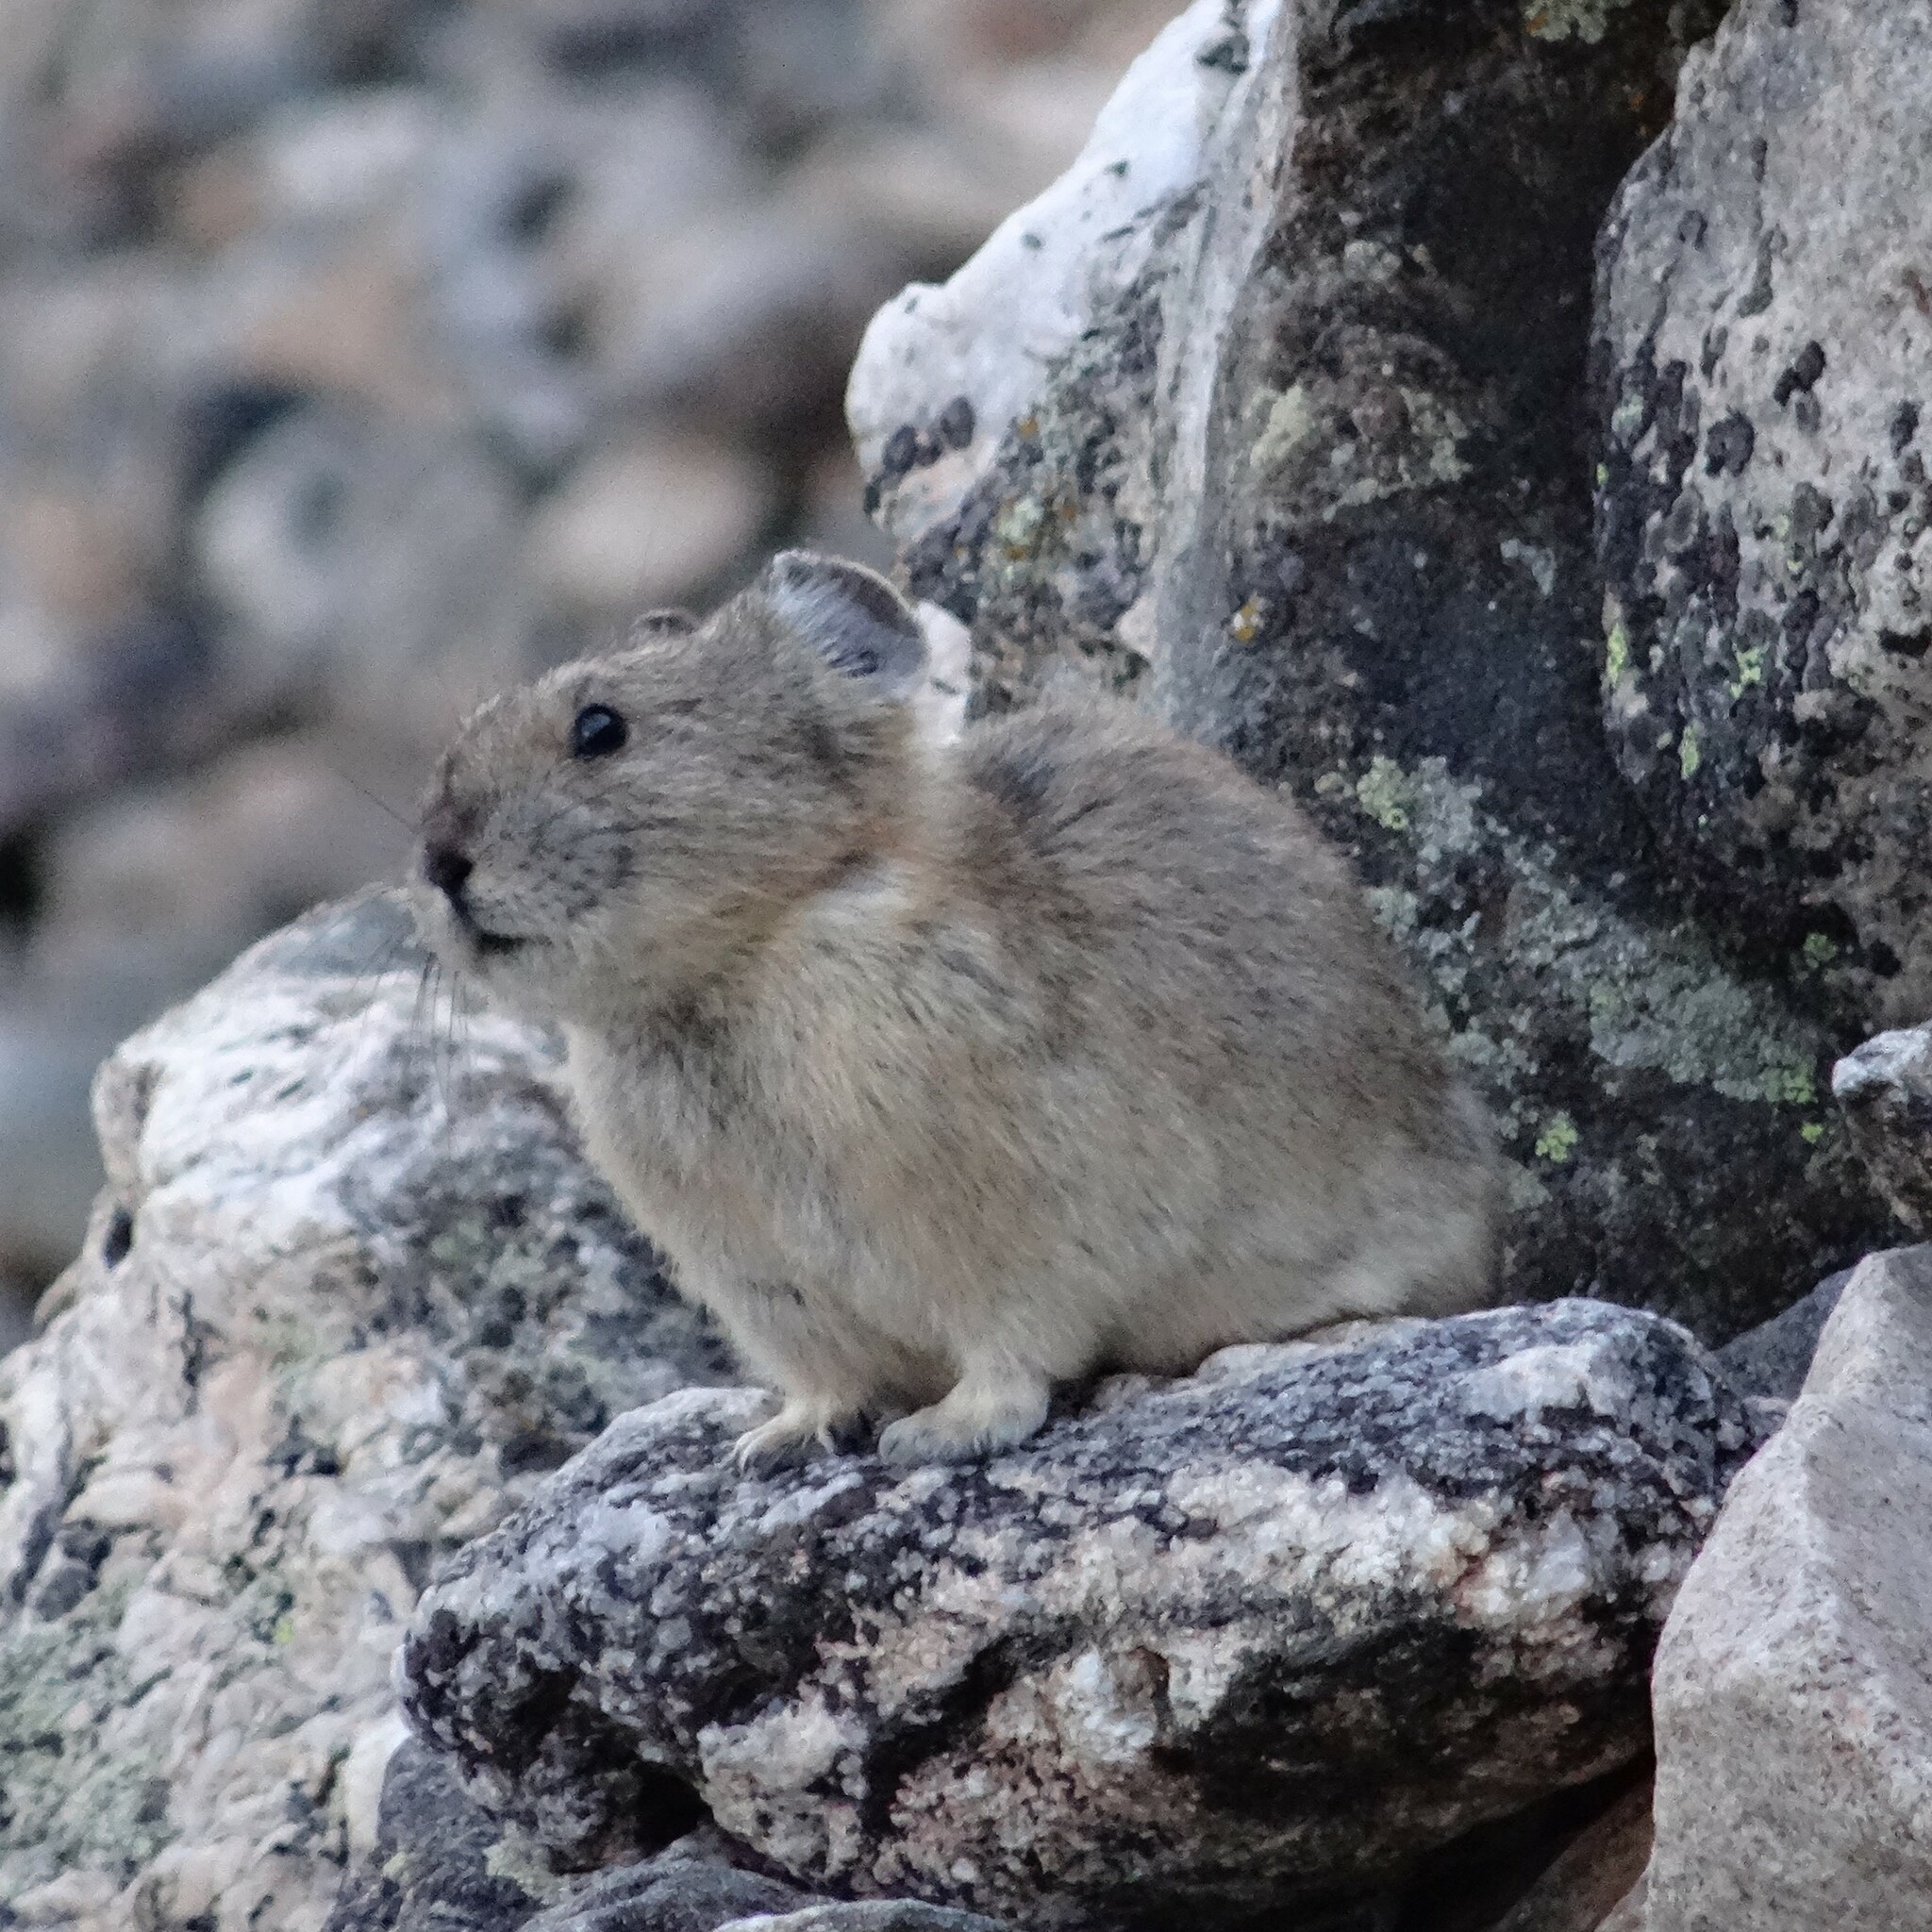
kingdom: Animalia
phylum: Chordata
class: Mammalia
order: Lagomorpha
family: Ochotonidae
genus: Ochotona
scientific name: Ochotona princeps
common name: American pika
